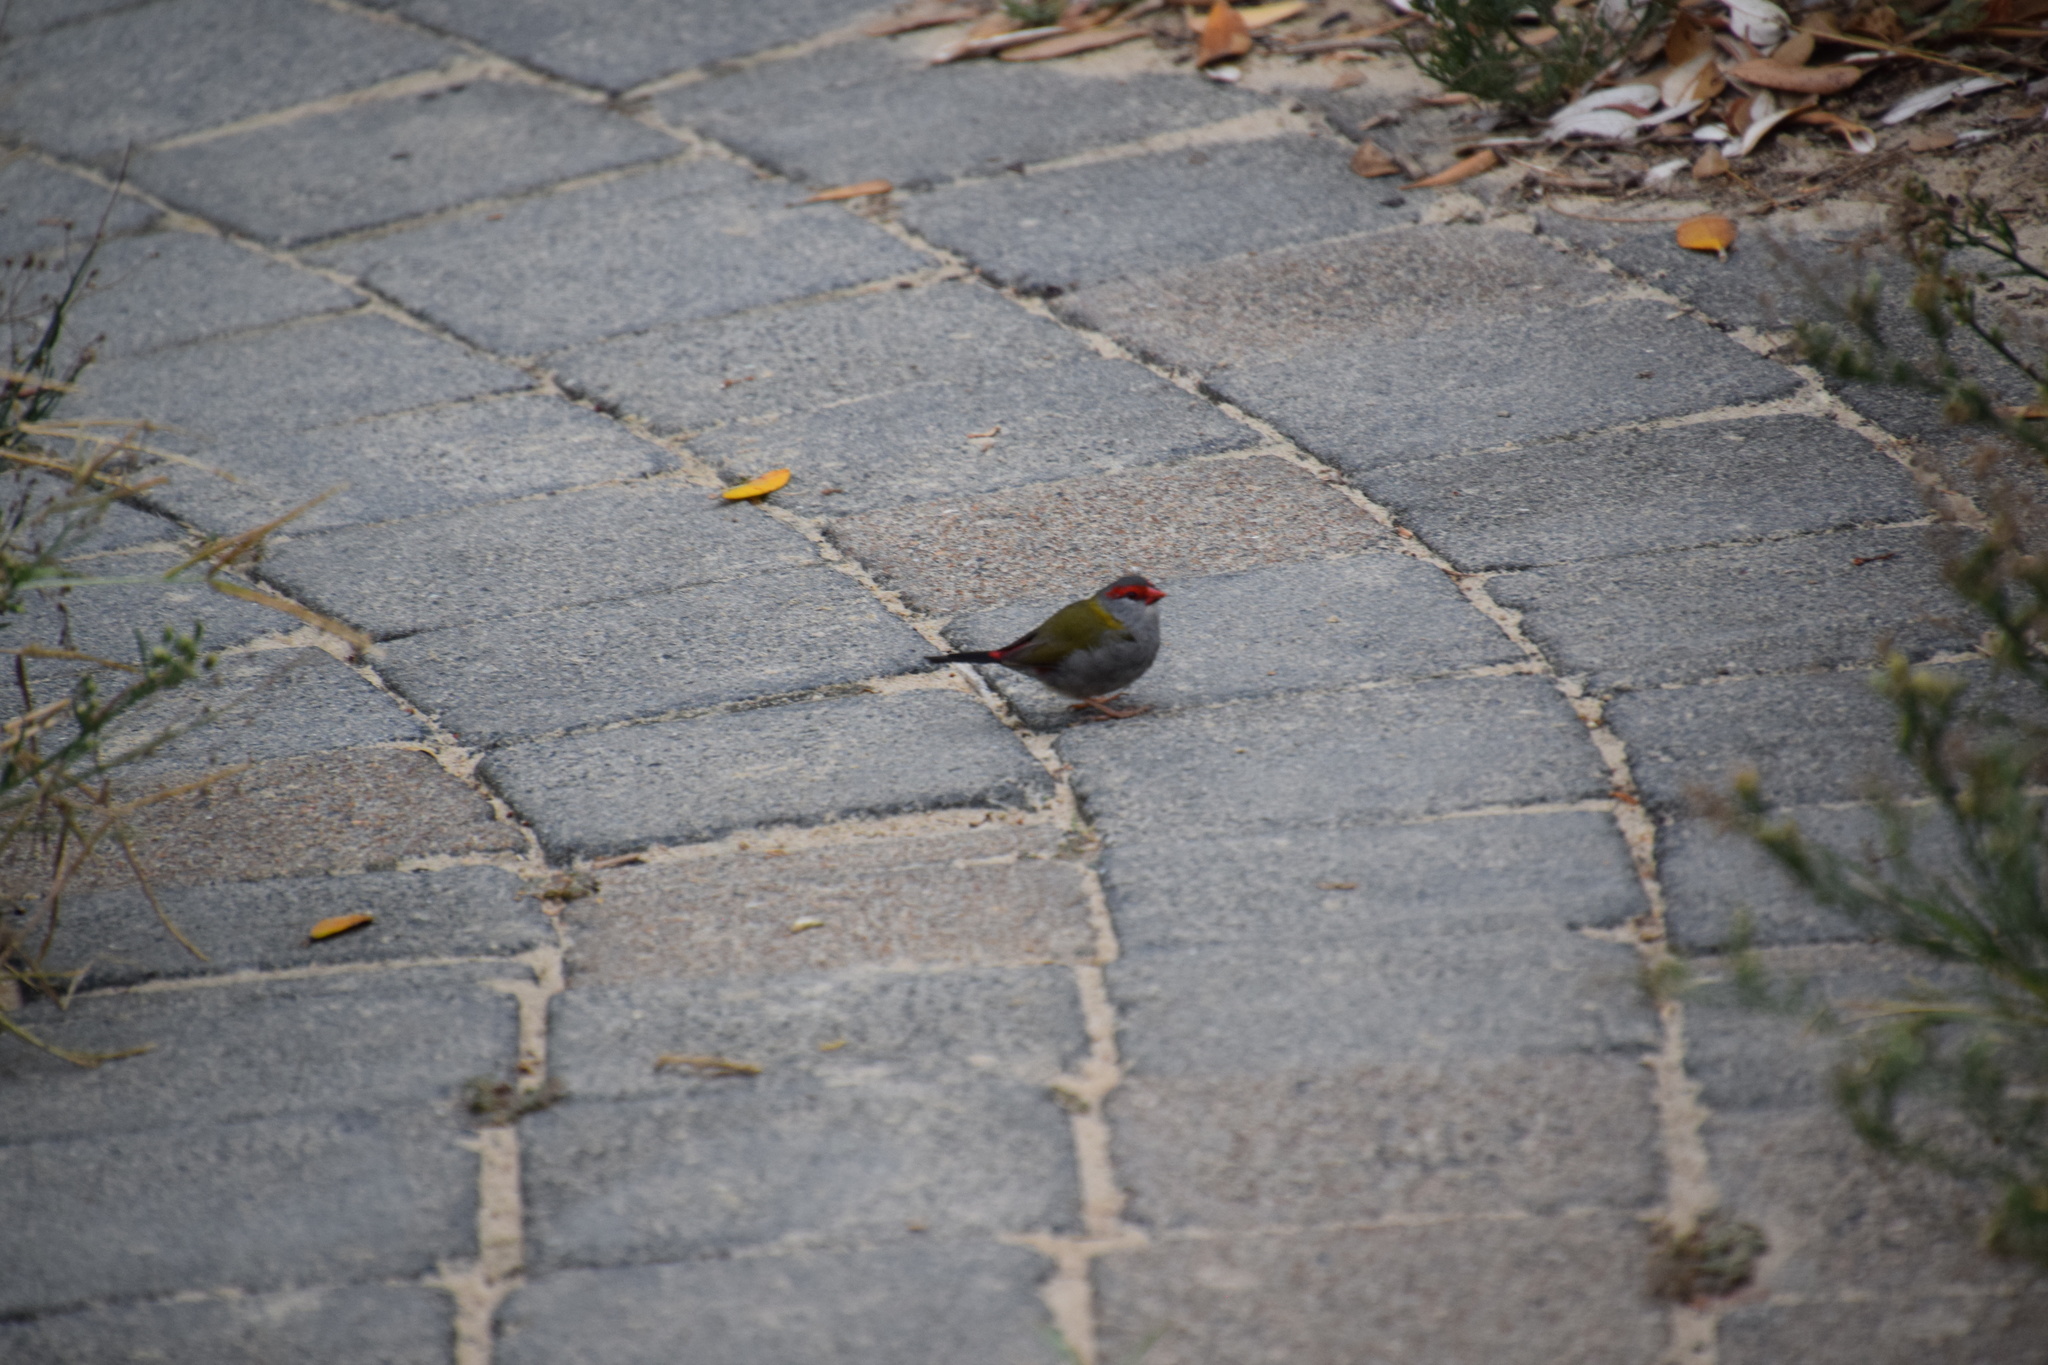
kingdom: Animalia
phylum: Chordata
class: Aves
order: Passeriformes
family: Estrildidae
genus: Neochmia
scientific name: Neochmia temporalis
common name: Red-browed finch
